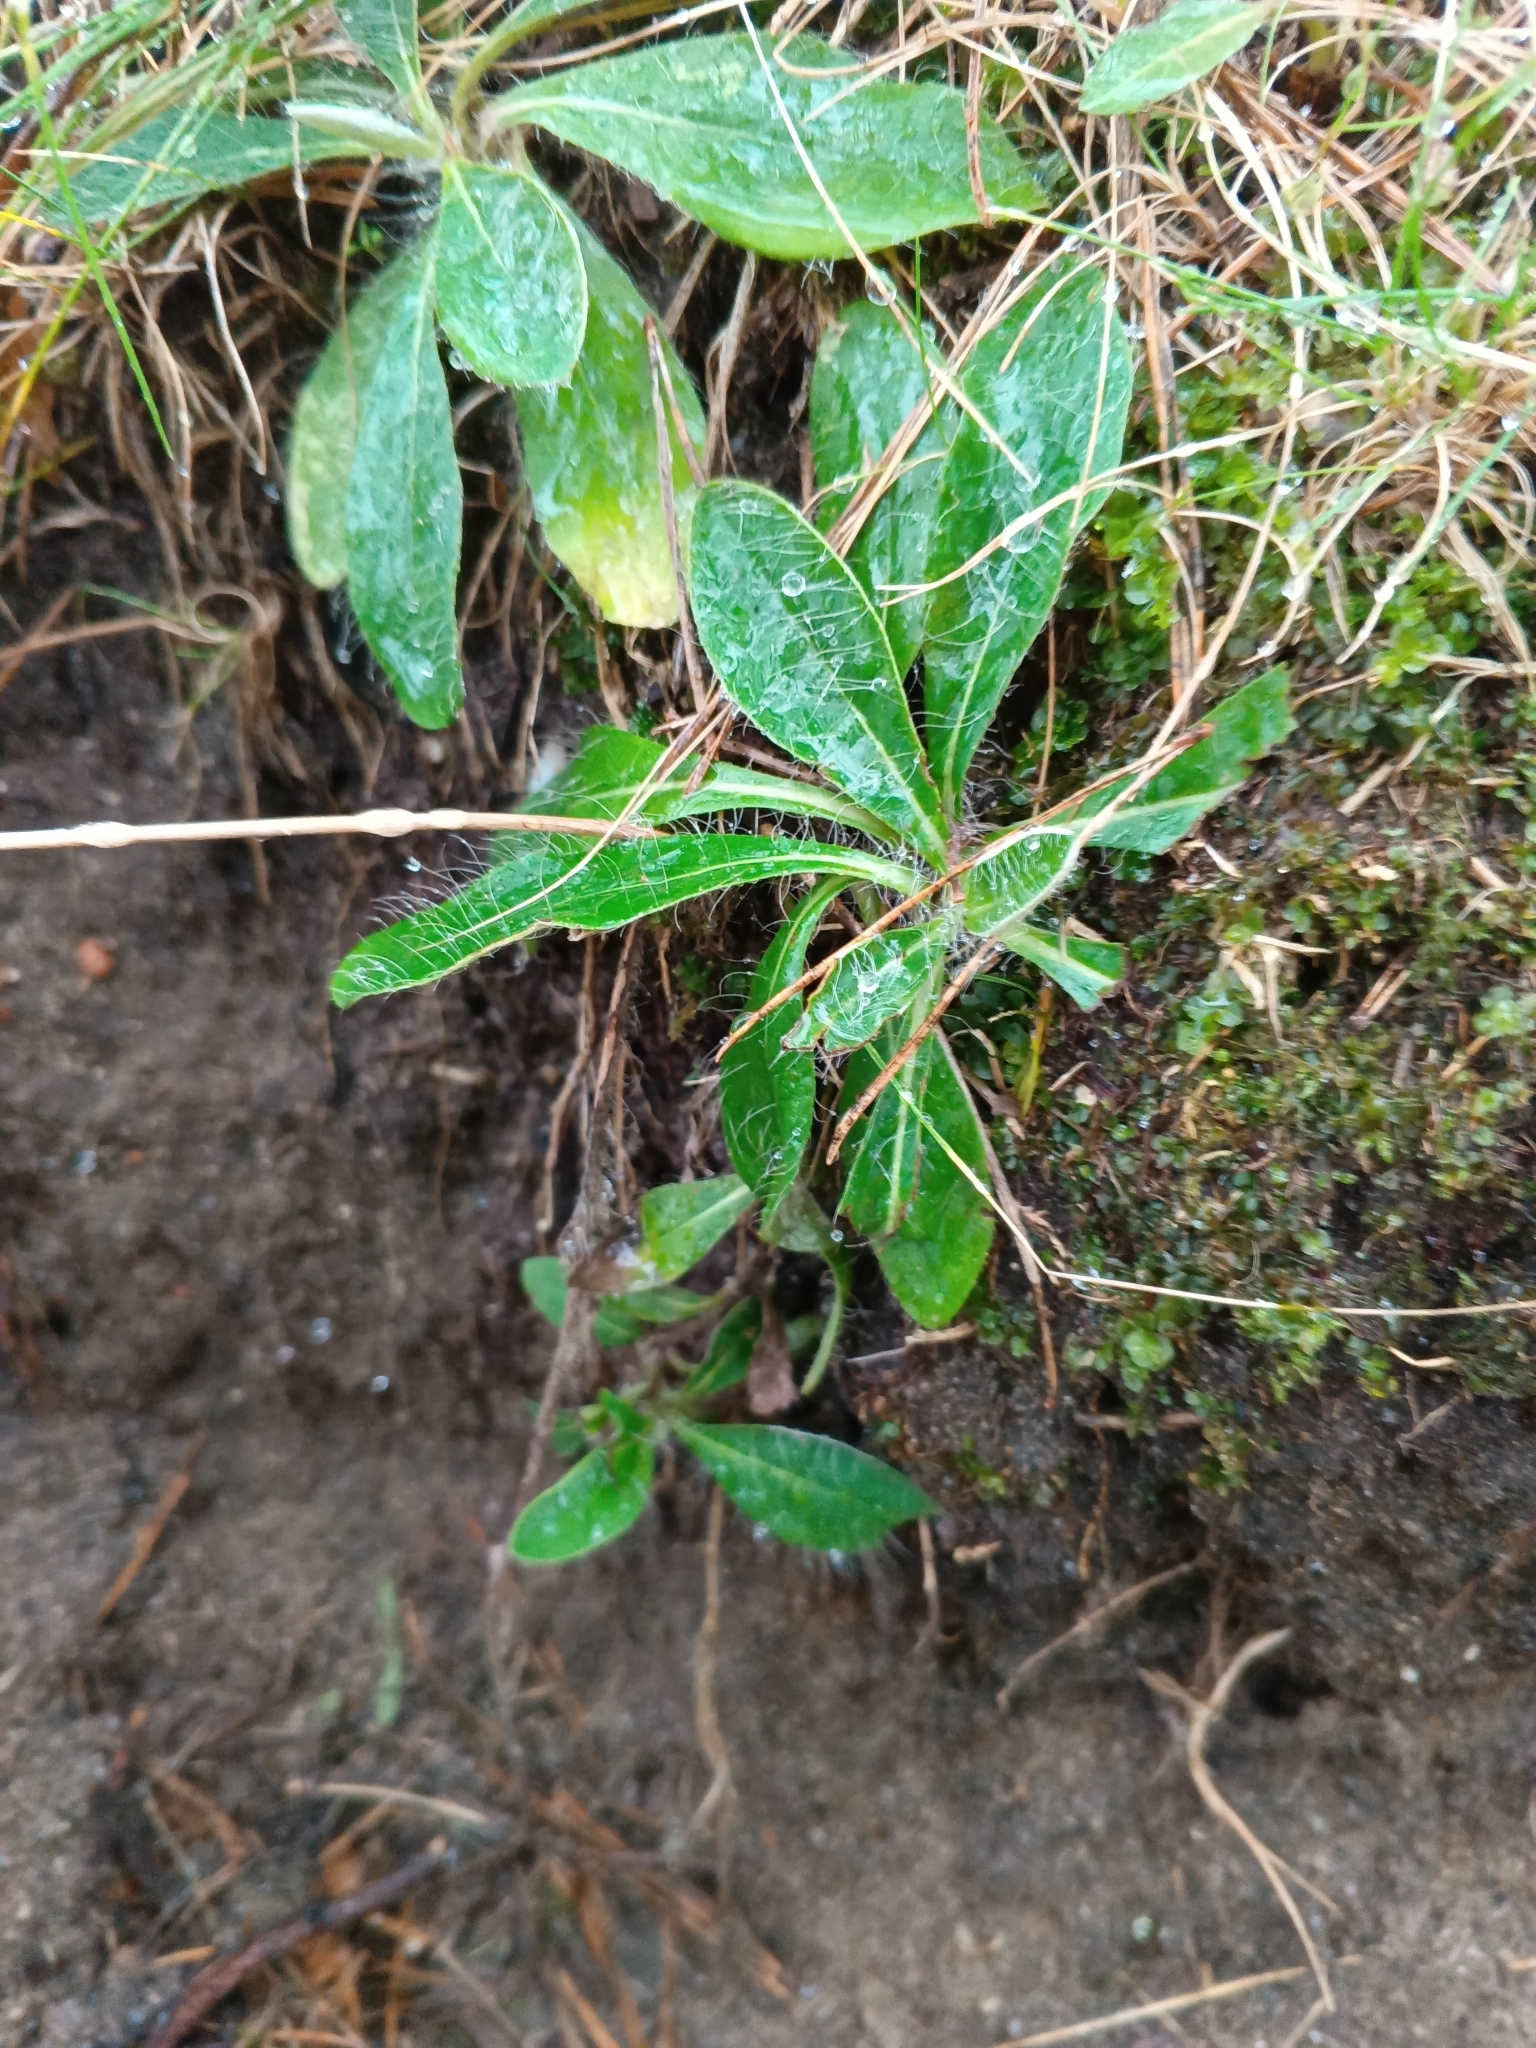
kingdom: Plantae
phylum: Tracheophyta
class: Magnoliopsida
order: Asterales
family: Asteraceae
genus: Pilosella
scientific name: Pilosella officinarum
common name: Mouse-ear hawkweed
